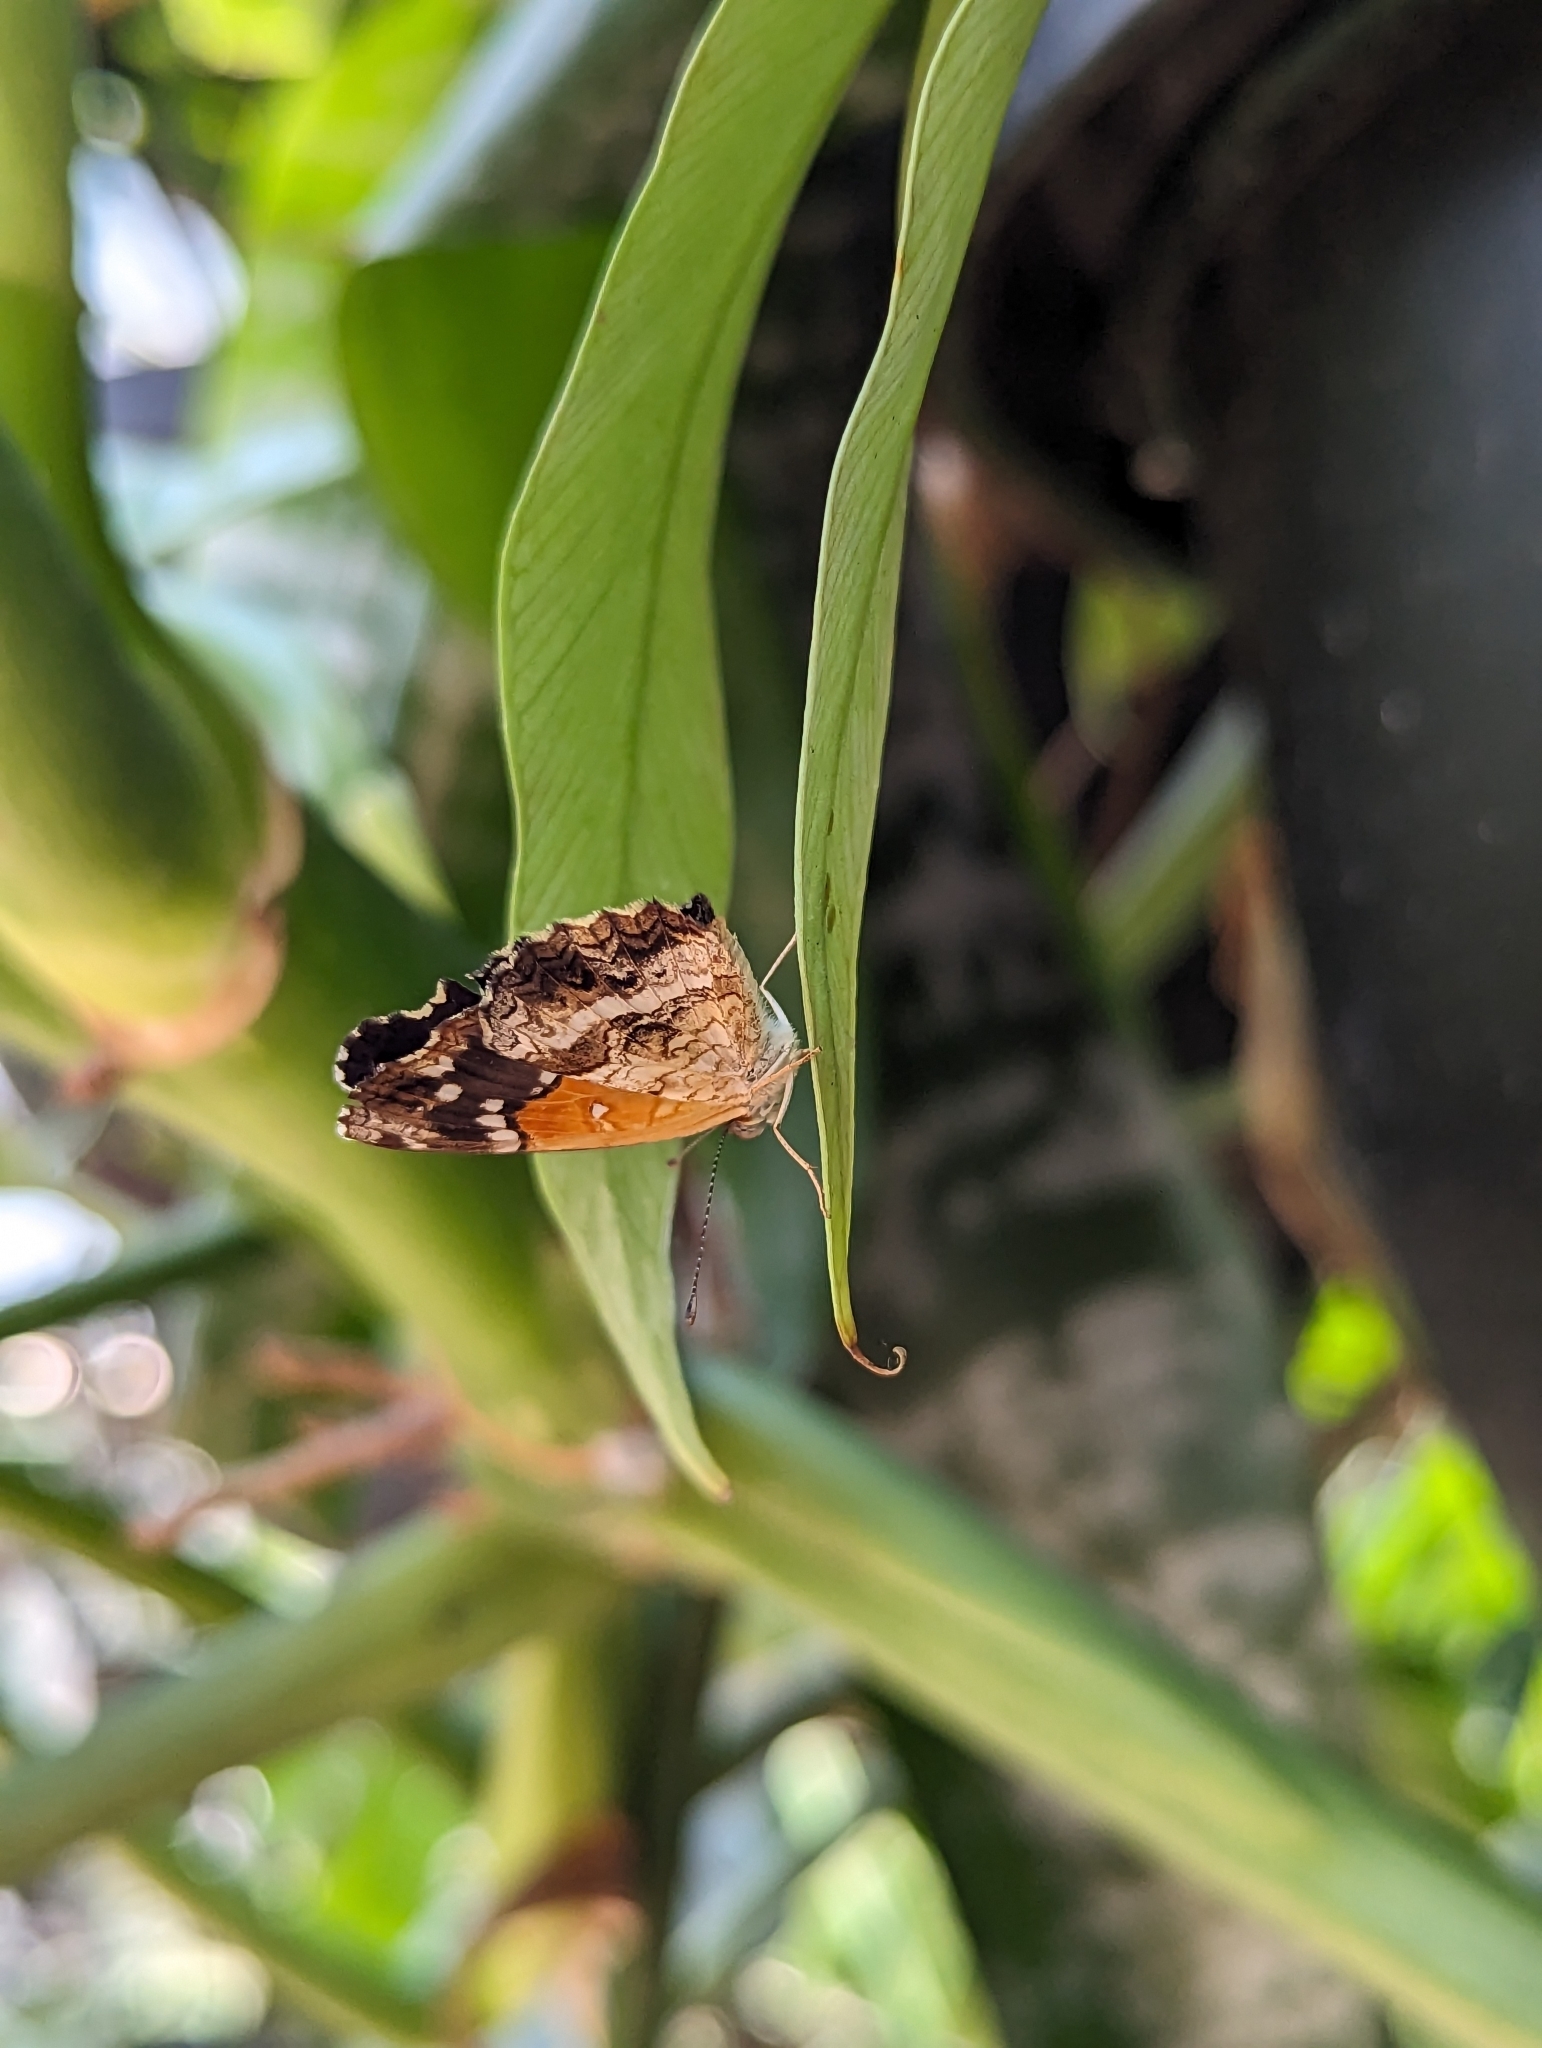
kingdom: Animalia
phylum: Arthropoda
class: Insecta
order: Lepidoptera
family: Nymphalidae
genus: Anthanassa
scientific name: Anthanassa texana
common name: Texan crescent
